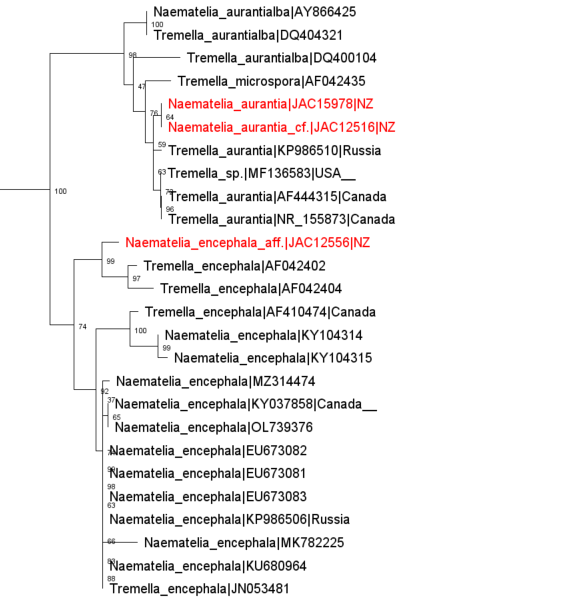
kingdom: Fungi
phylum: Basidiomycota
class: Tremellomycetes
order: Tremellales
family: Naemateliaceae
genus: Naematelia
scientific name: Naematelia encephala
